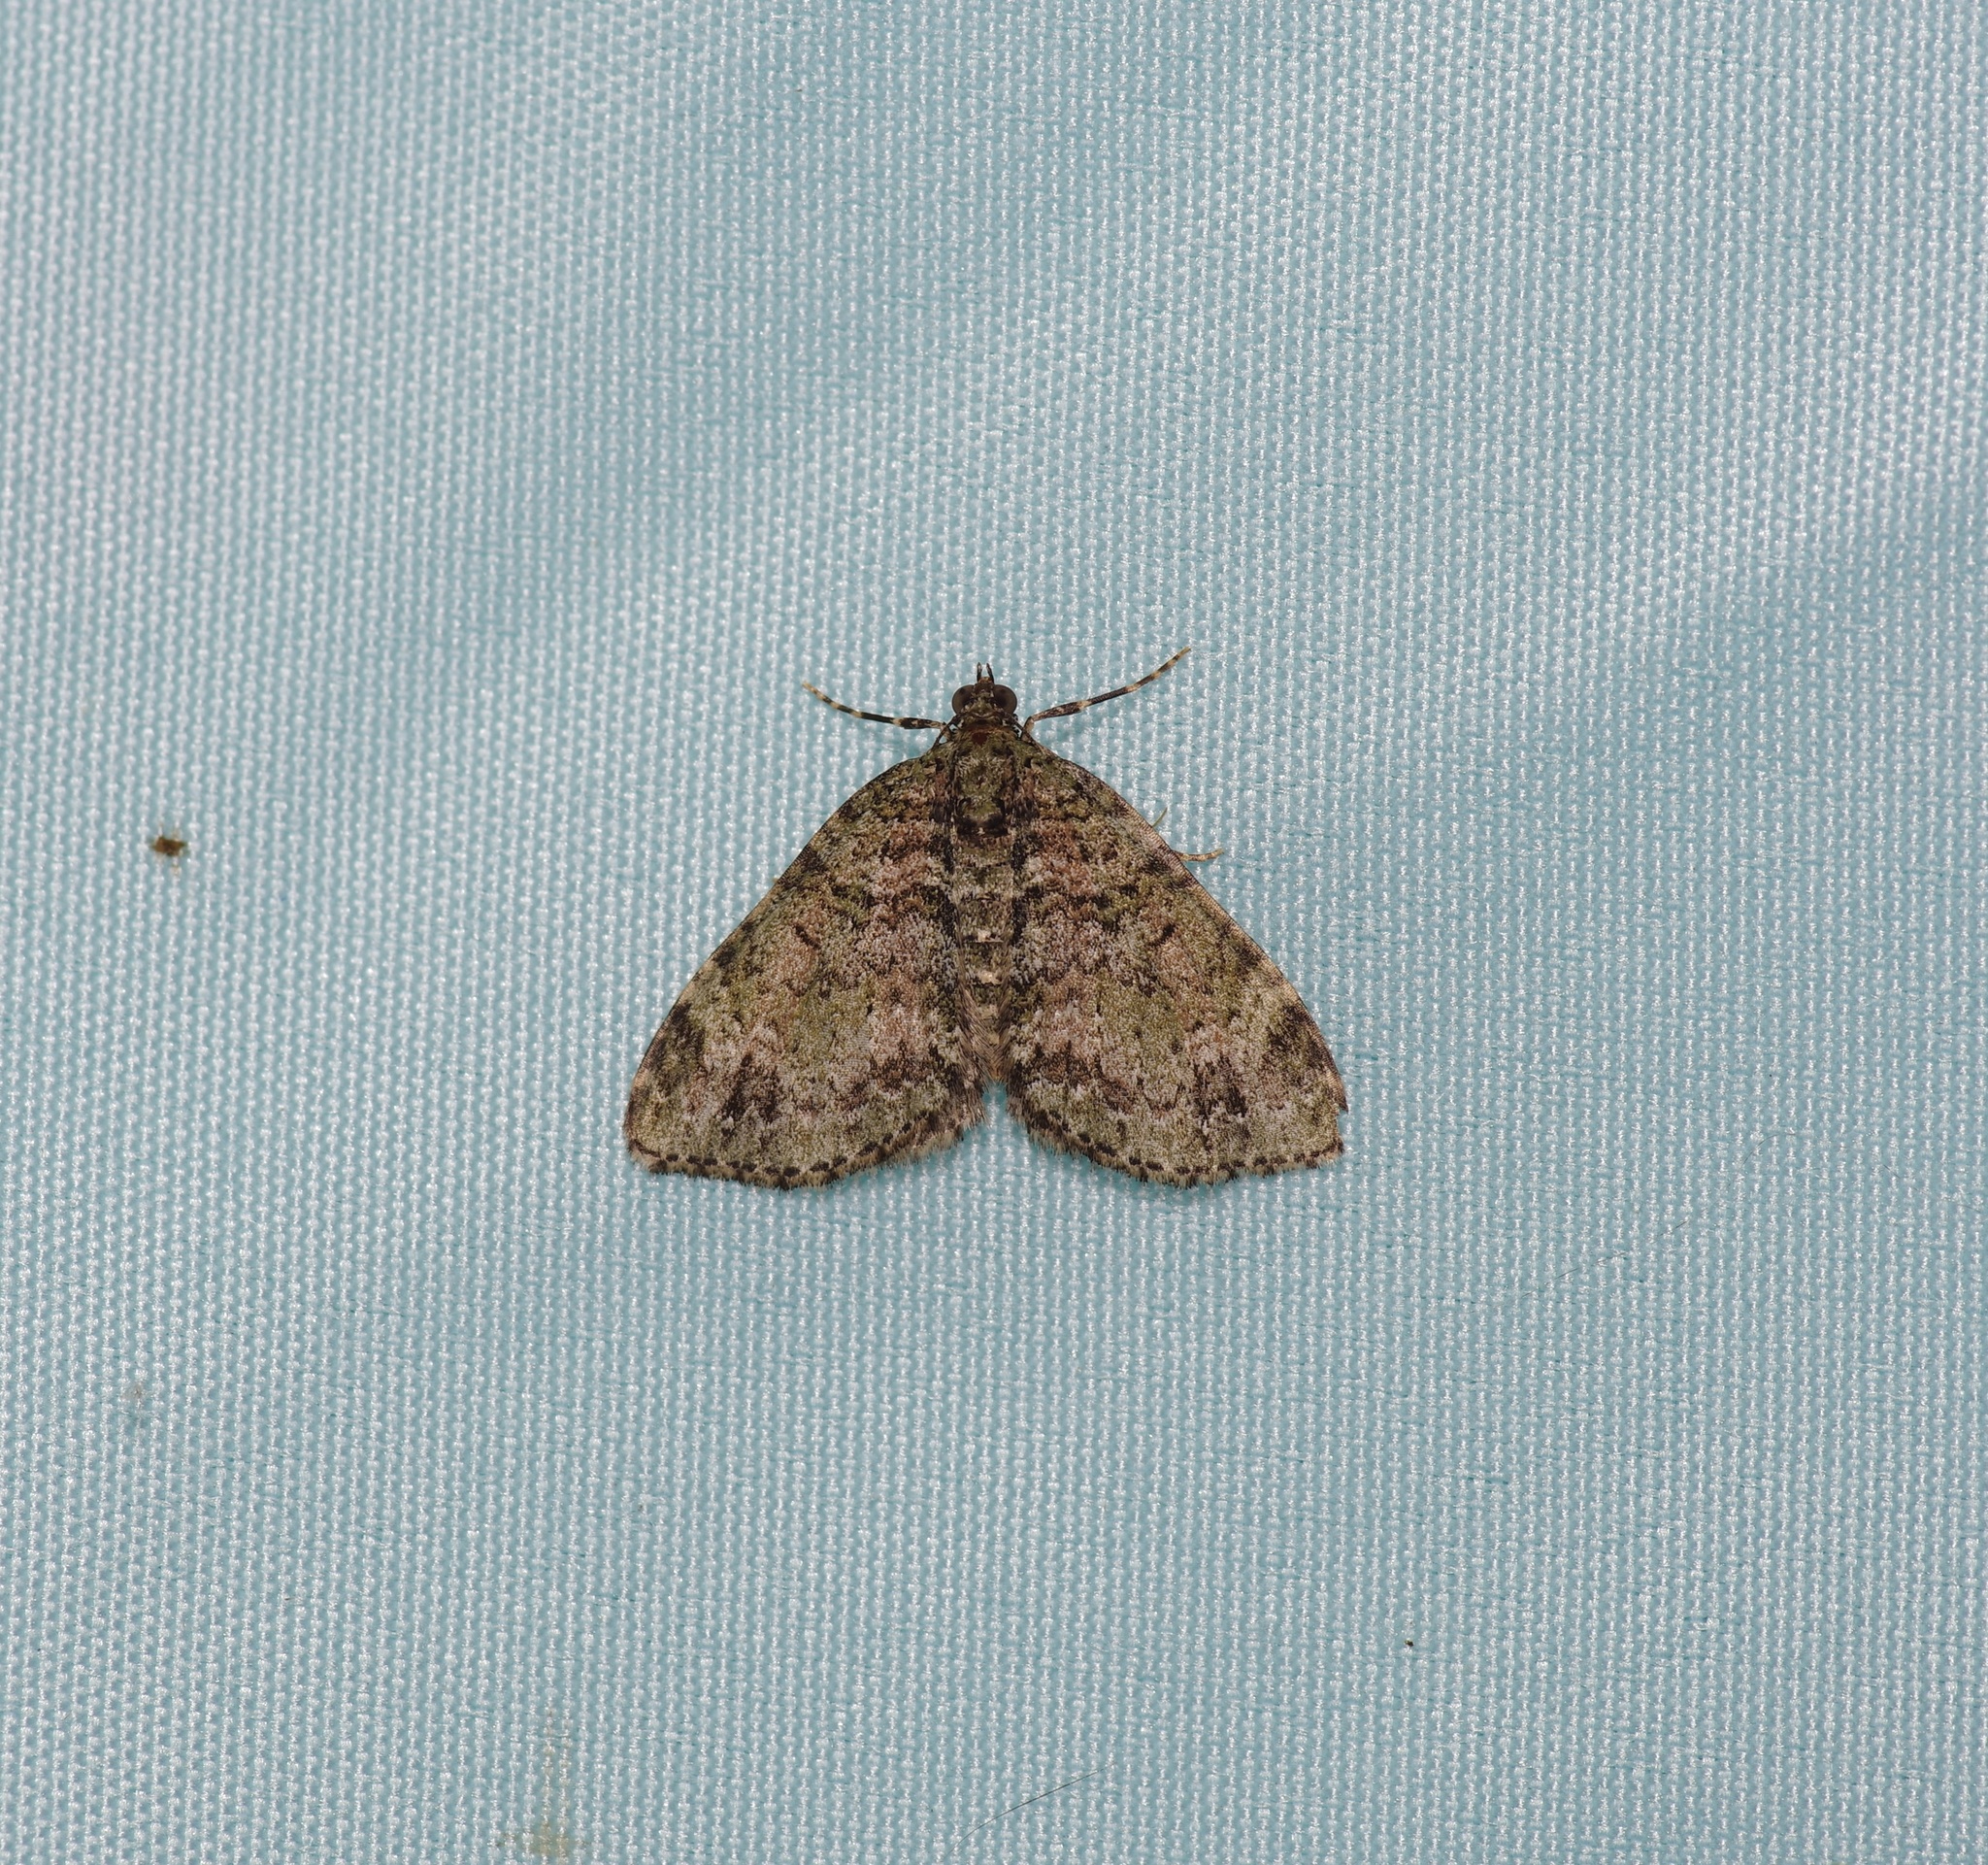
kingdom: Animalia
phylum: Arthropoda
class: Insecta
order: Lepidoptera
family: Geometridae
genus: Hammaptera
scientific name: Hammaptera parinotata
